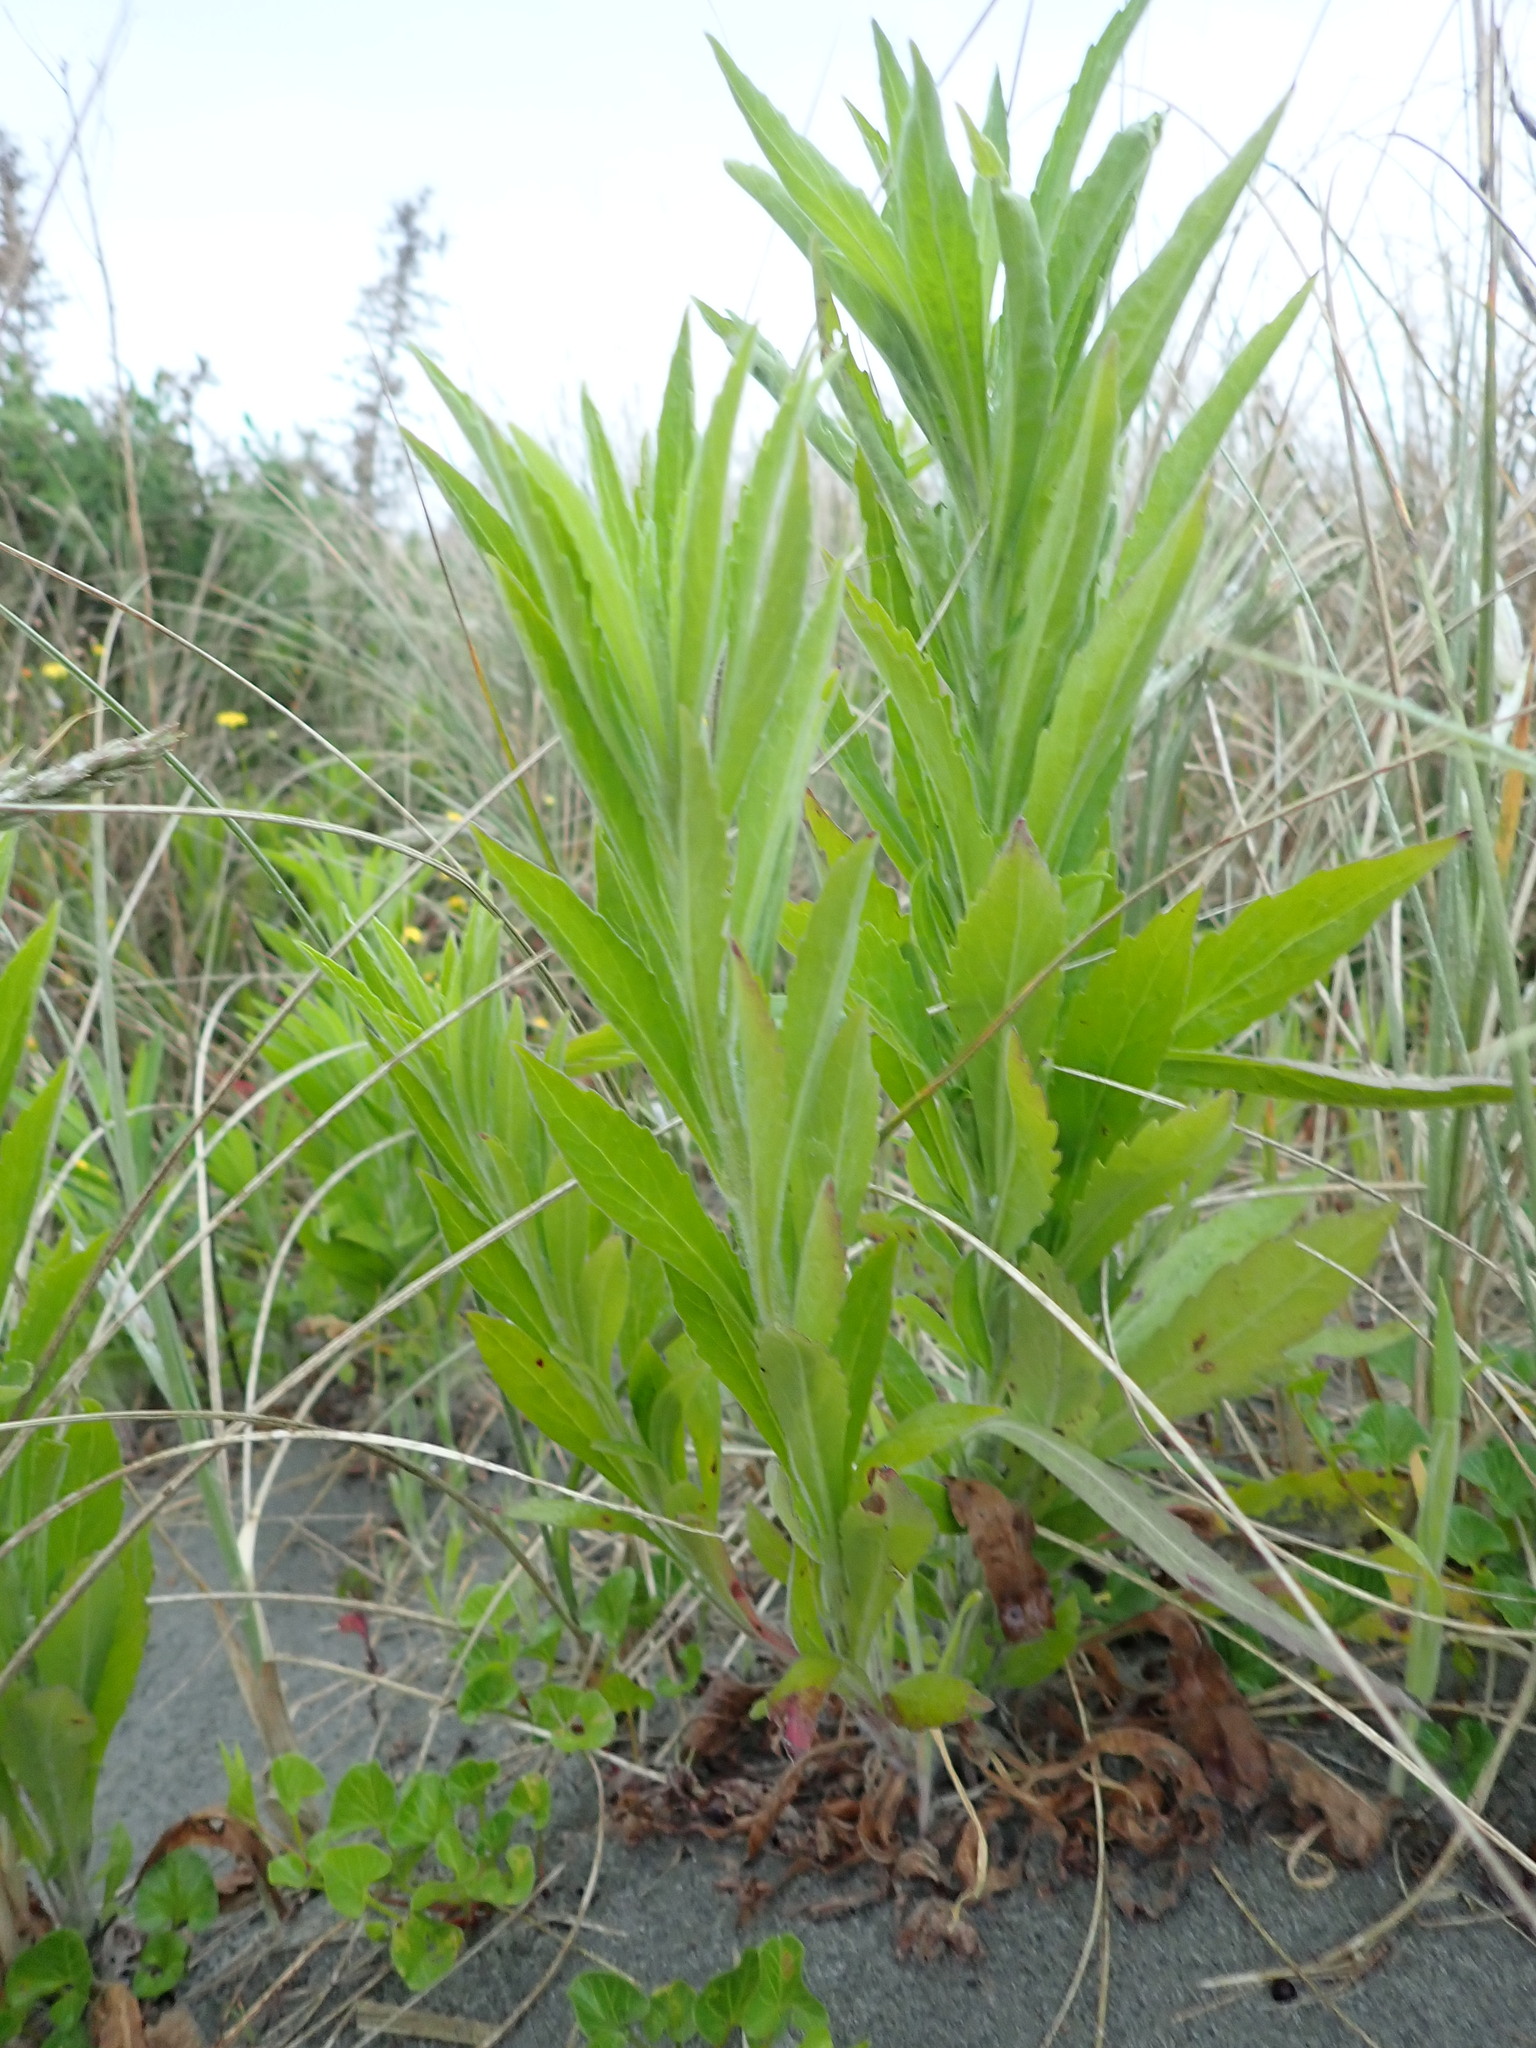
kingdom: Plantae
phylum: Tracheophyta
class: Magnoliopsida
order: Asterales
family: Asteraceae
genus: Erigeron
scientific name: Erigeron sumatrensis
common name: Daisy
